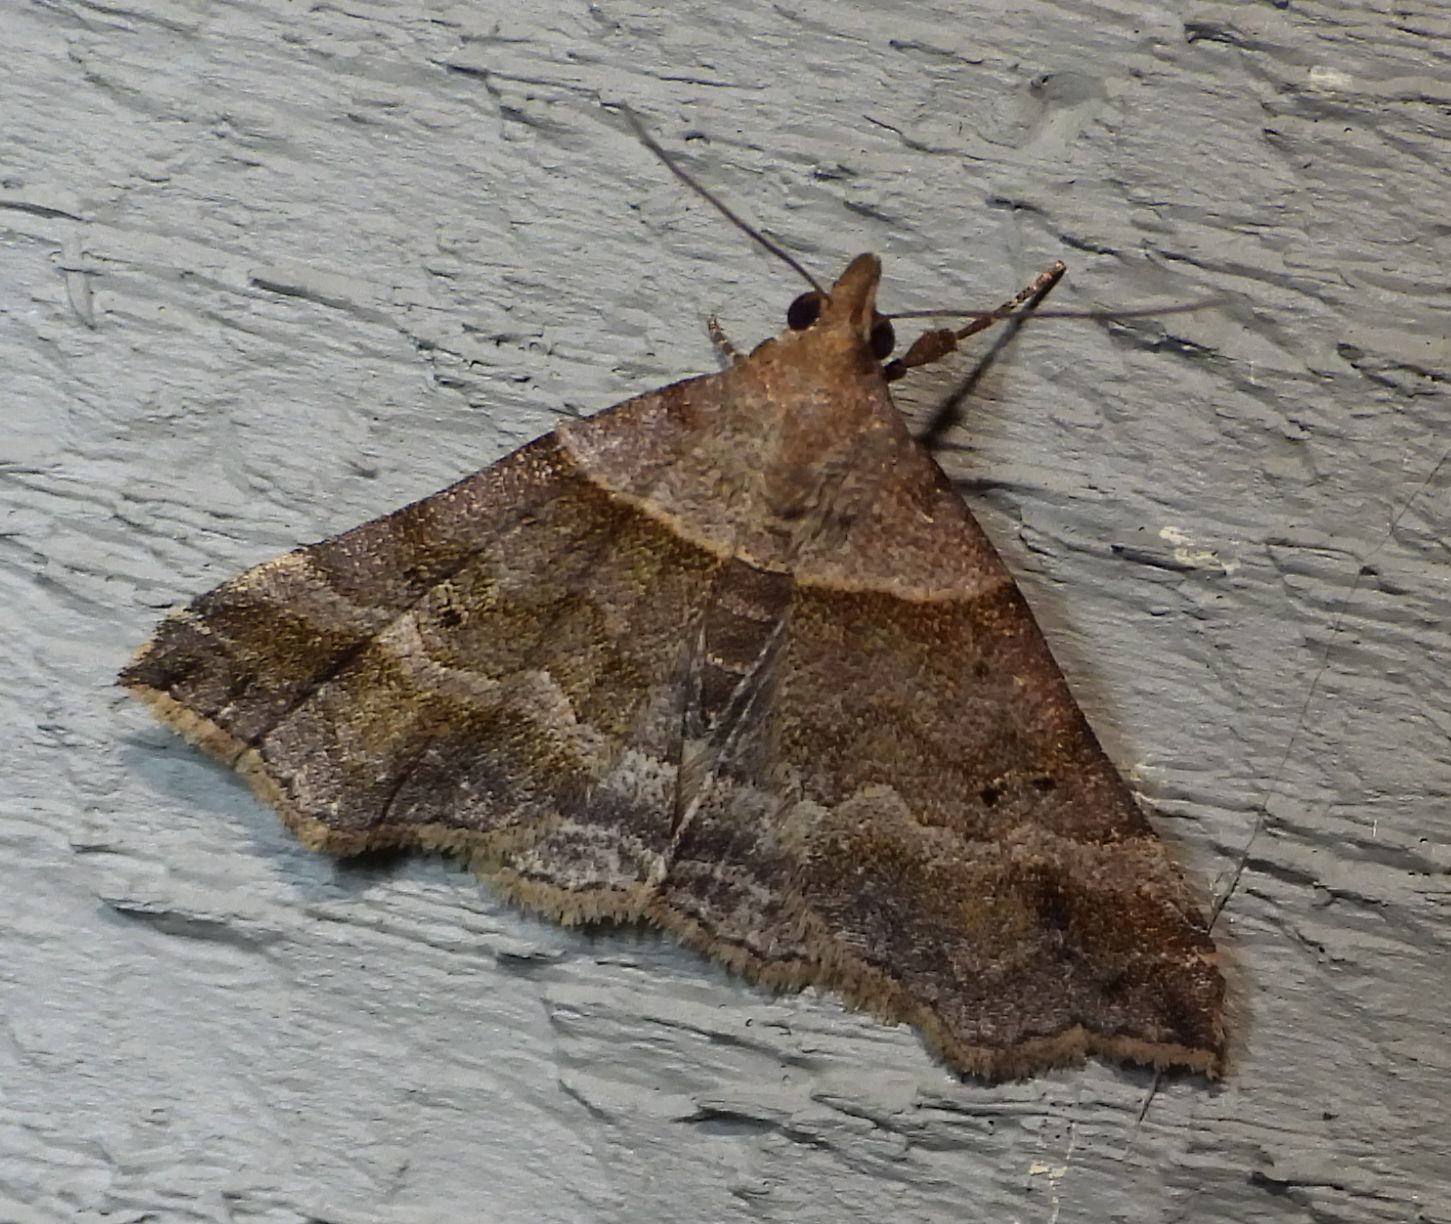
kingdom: Animalia
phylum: Arthropoda
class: Insecta
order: Lepidoptera
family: Erebidae
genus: Phaeolita
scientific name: Phaeolita pyramusalis
